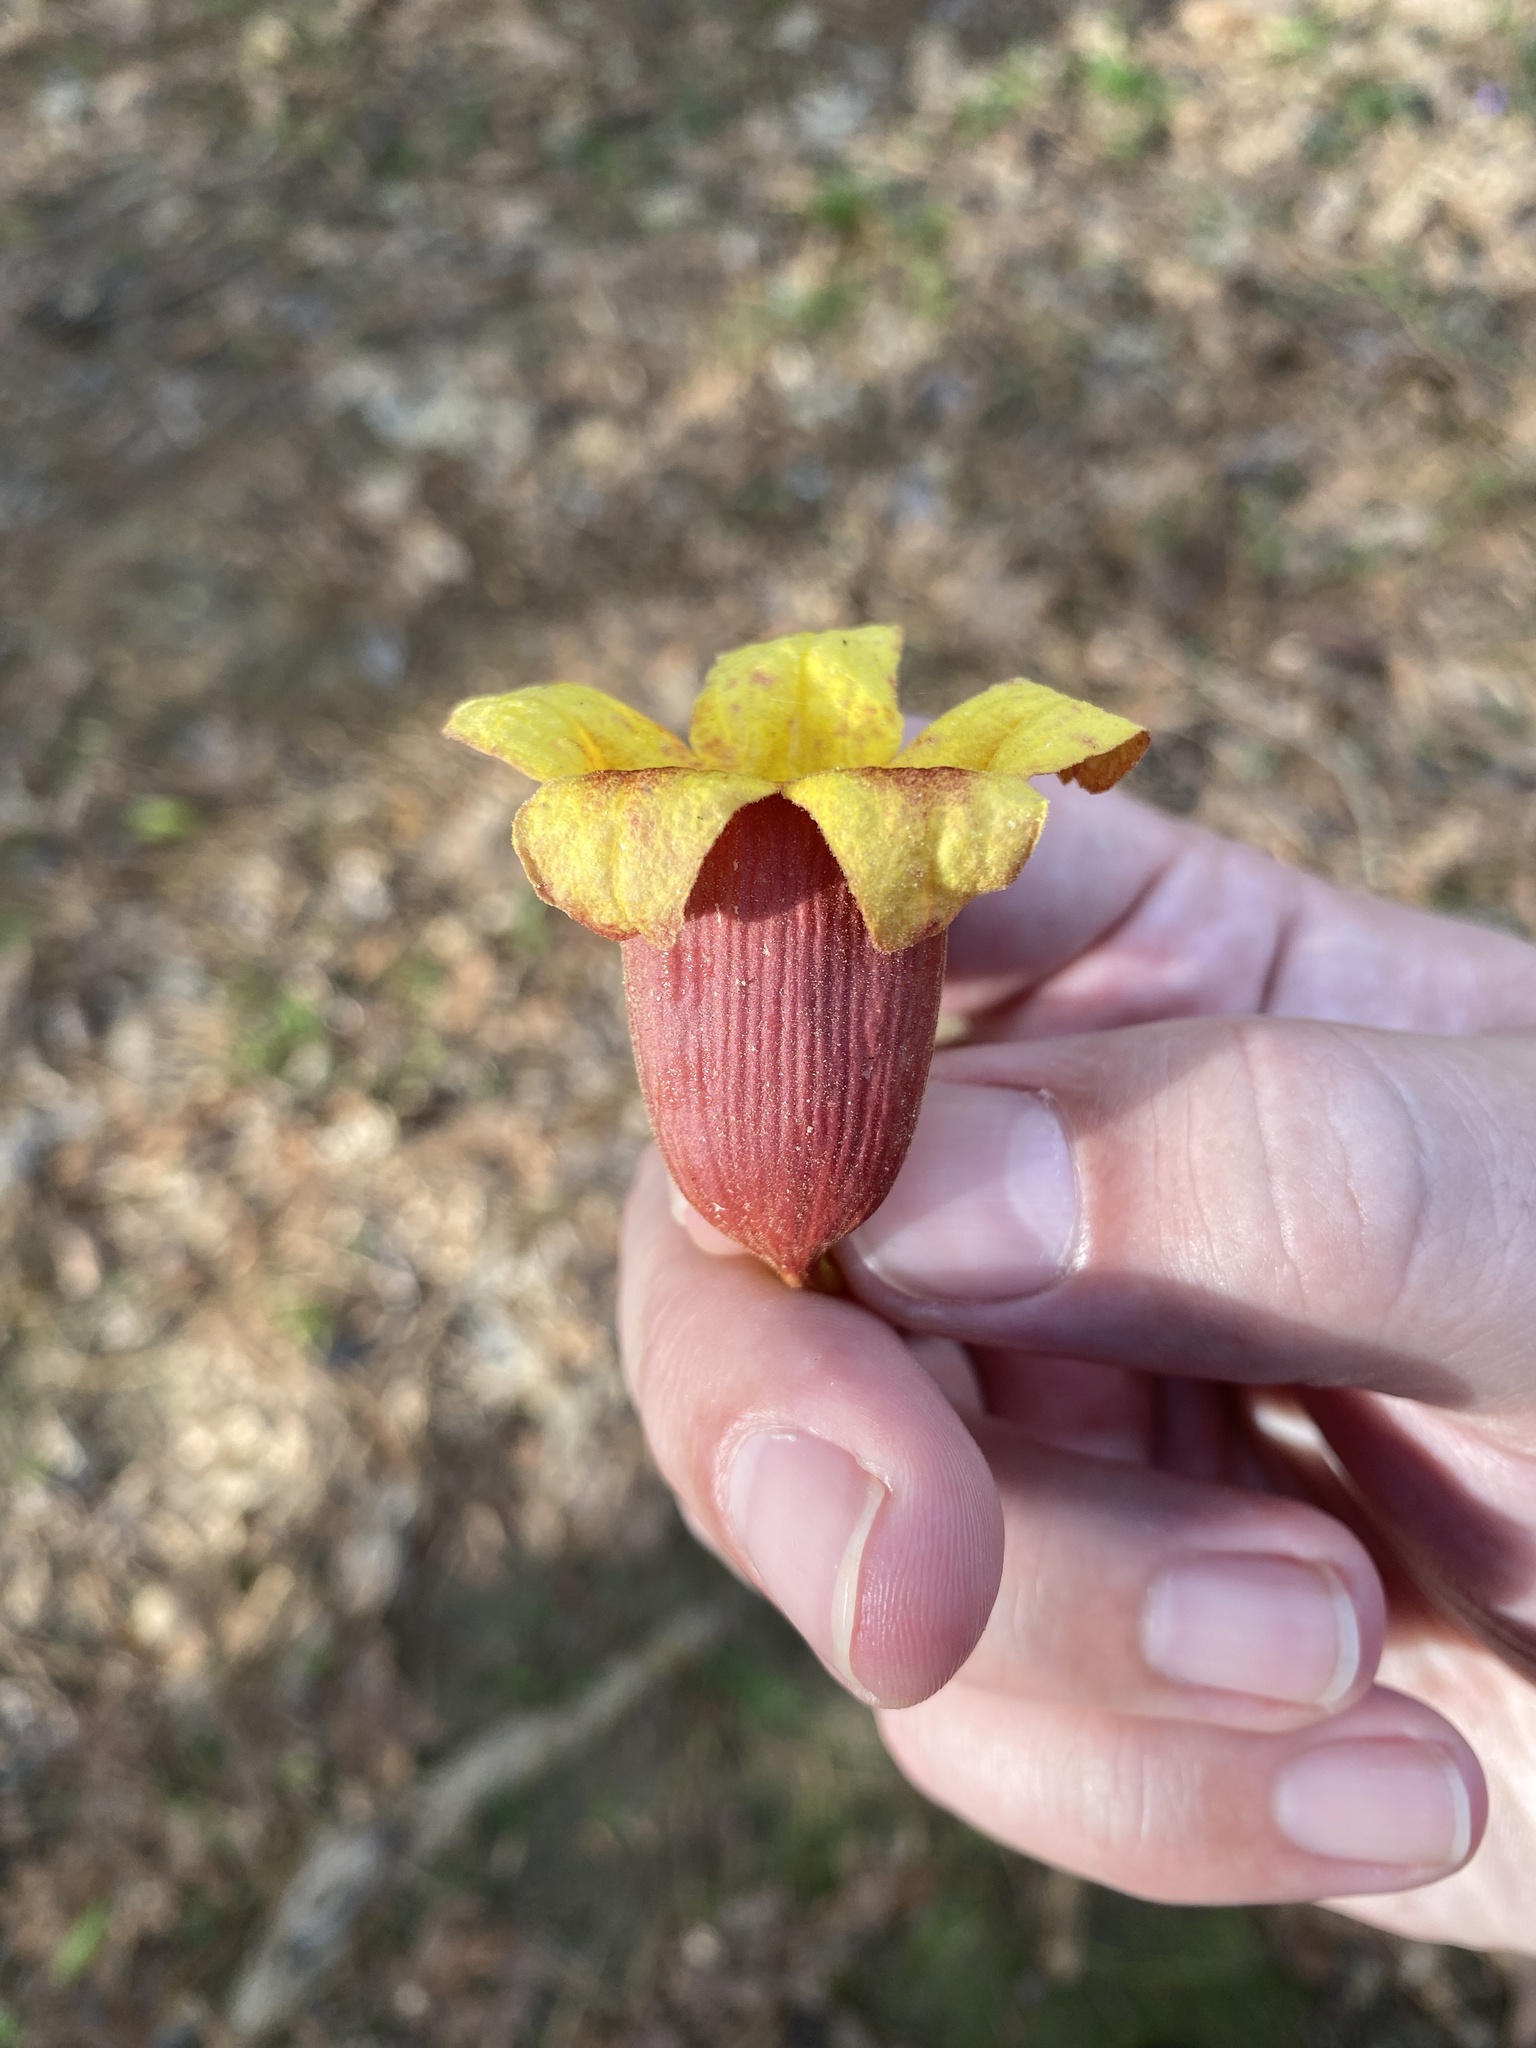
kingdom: Plantae
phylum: Tracheophyta
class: Magnoliopsida
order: Lamiales
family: Bignoniaceae
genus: Bignonia
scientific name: Bignonia capreolata
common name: Crossvine
